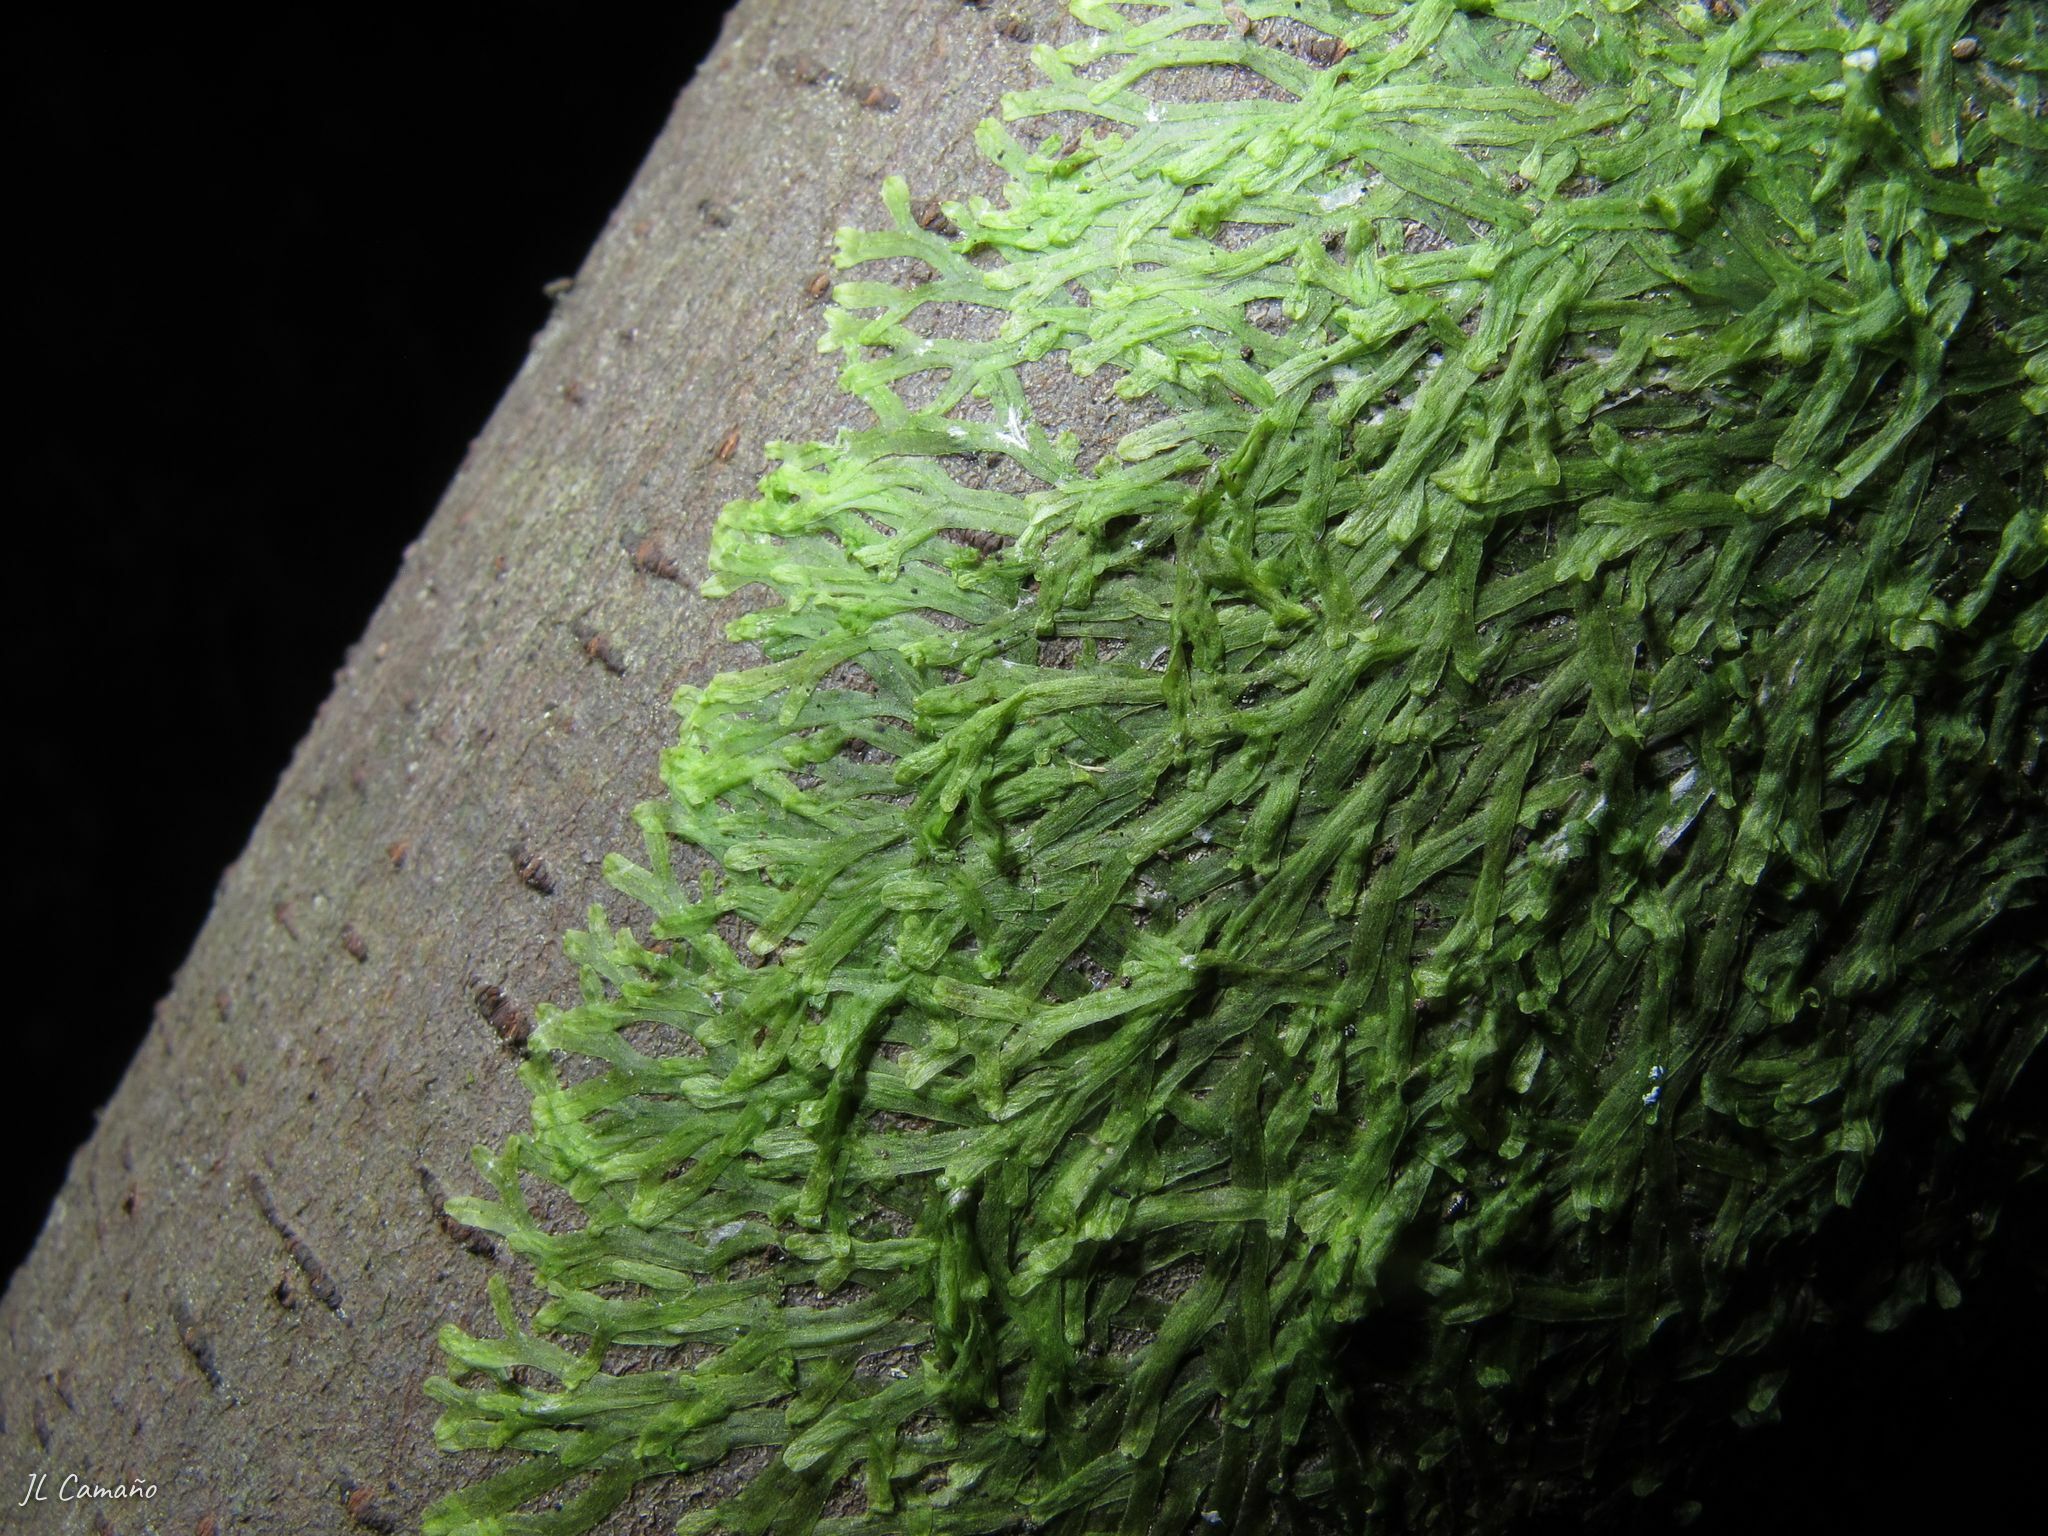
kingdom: Plantae
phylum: Marchantiophyta
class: Jungermanniopsida
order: Metzgeriales
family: Metzgeriaceae
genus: Metzgeria
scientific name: Metzgeria furcata
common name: Forked veilwort
